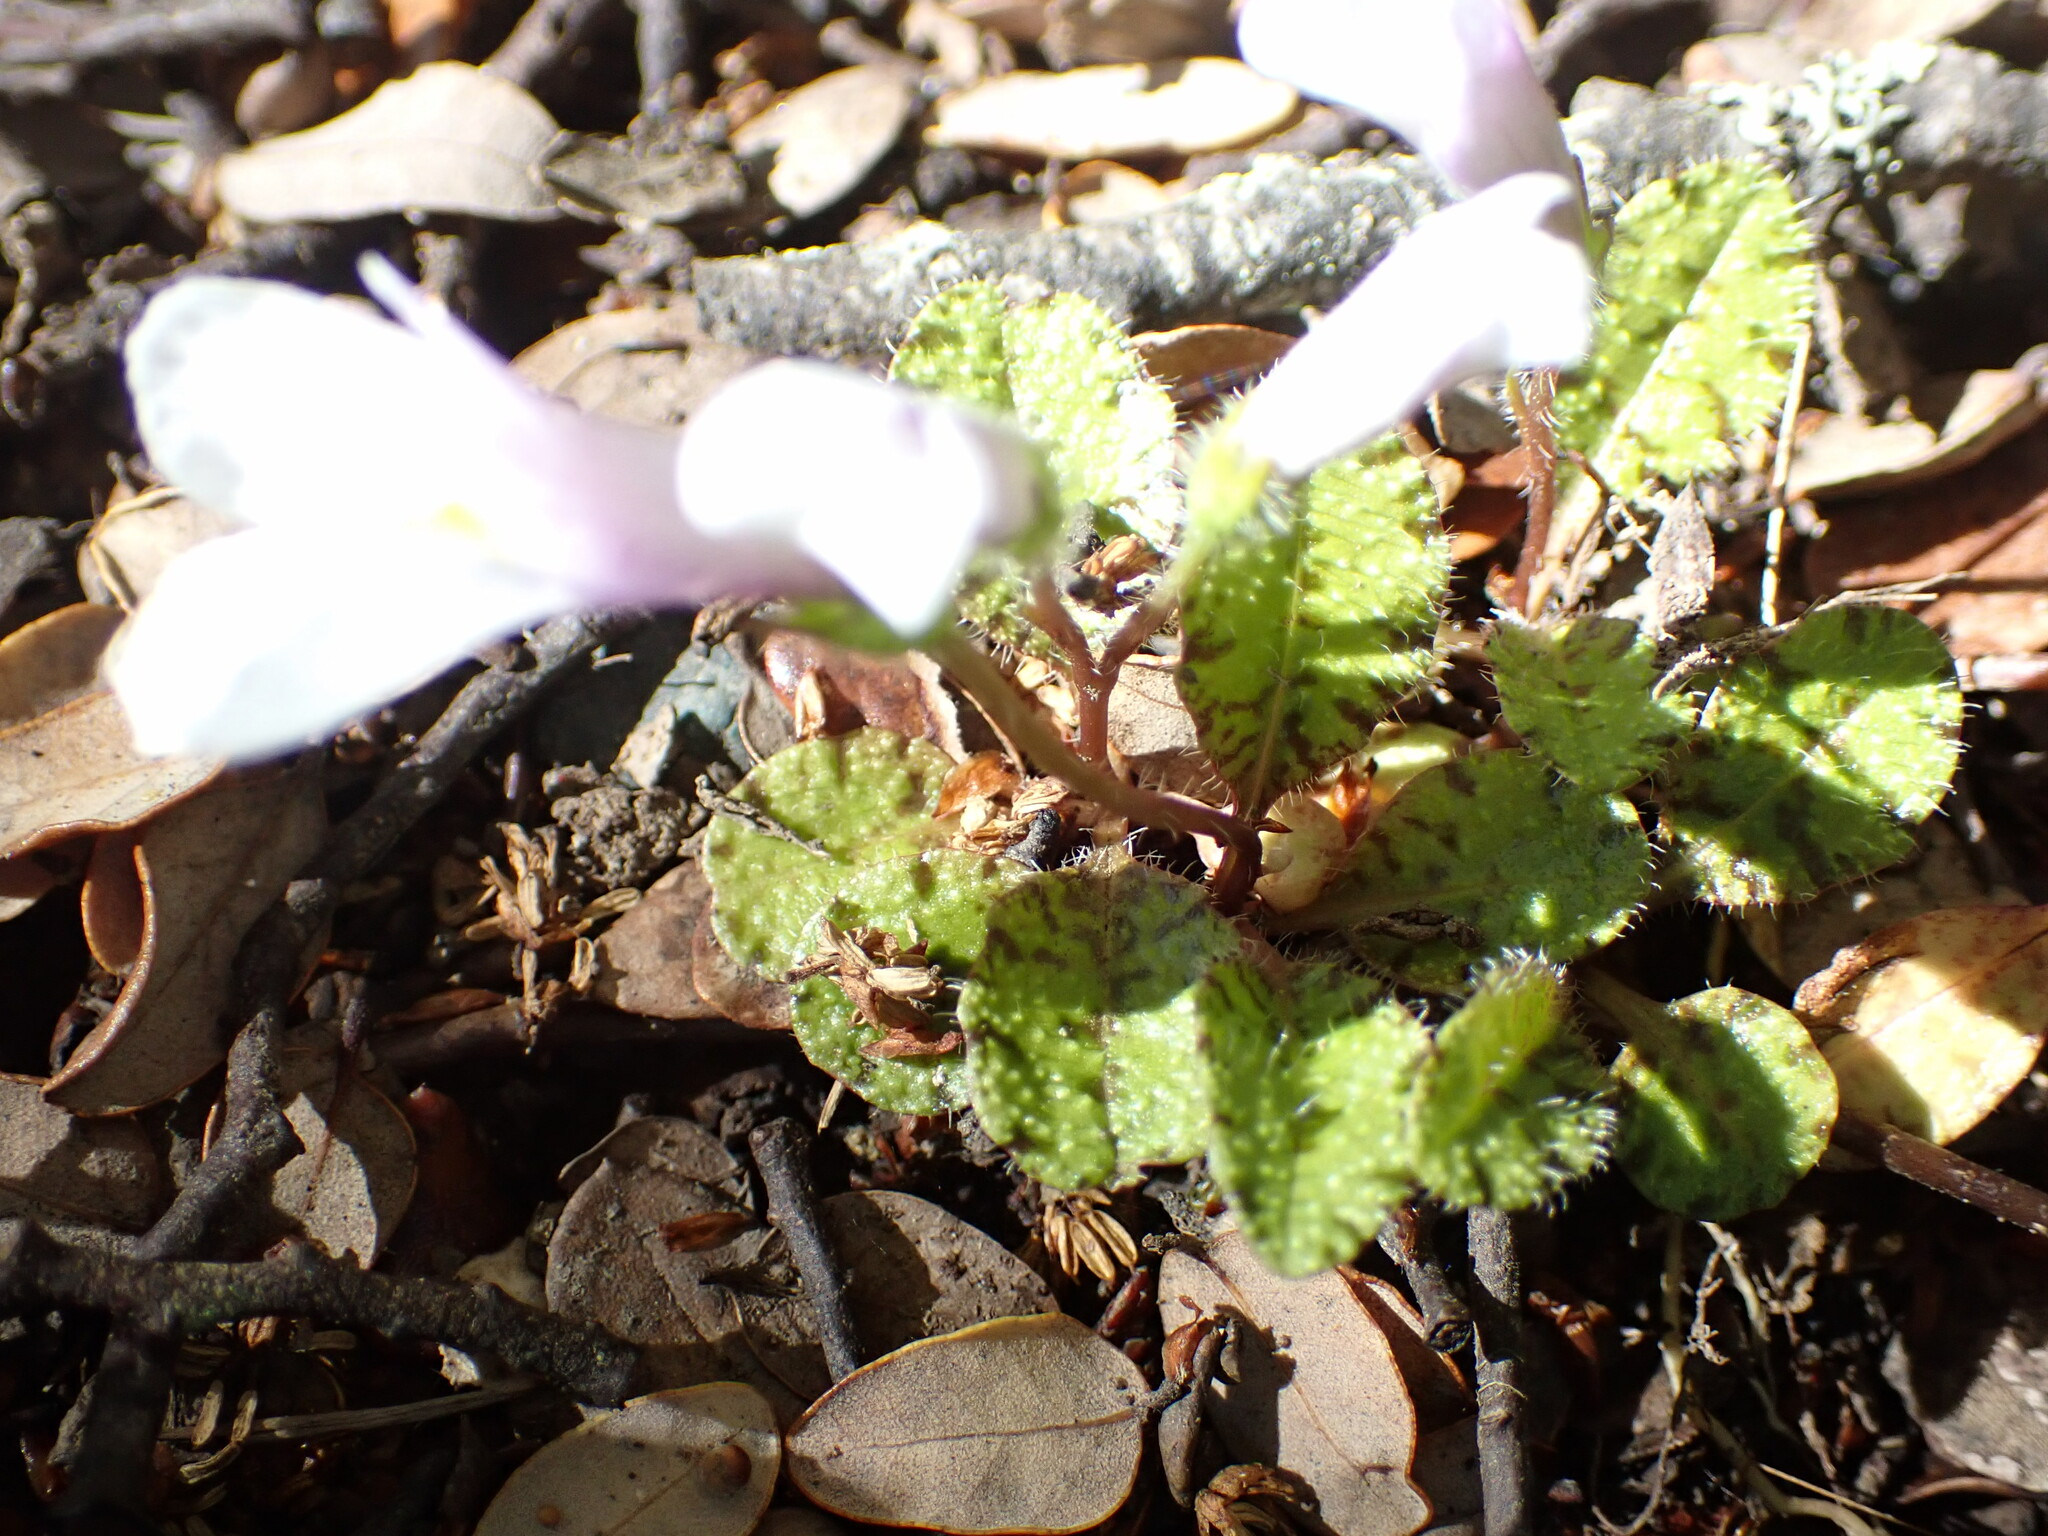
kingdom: Plantae
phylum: Tracheophyta
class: Magnoliopsida
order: Lamiales
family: Mazaceae
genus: Mazus
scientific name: Mazus radicans
